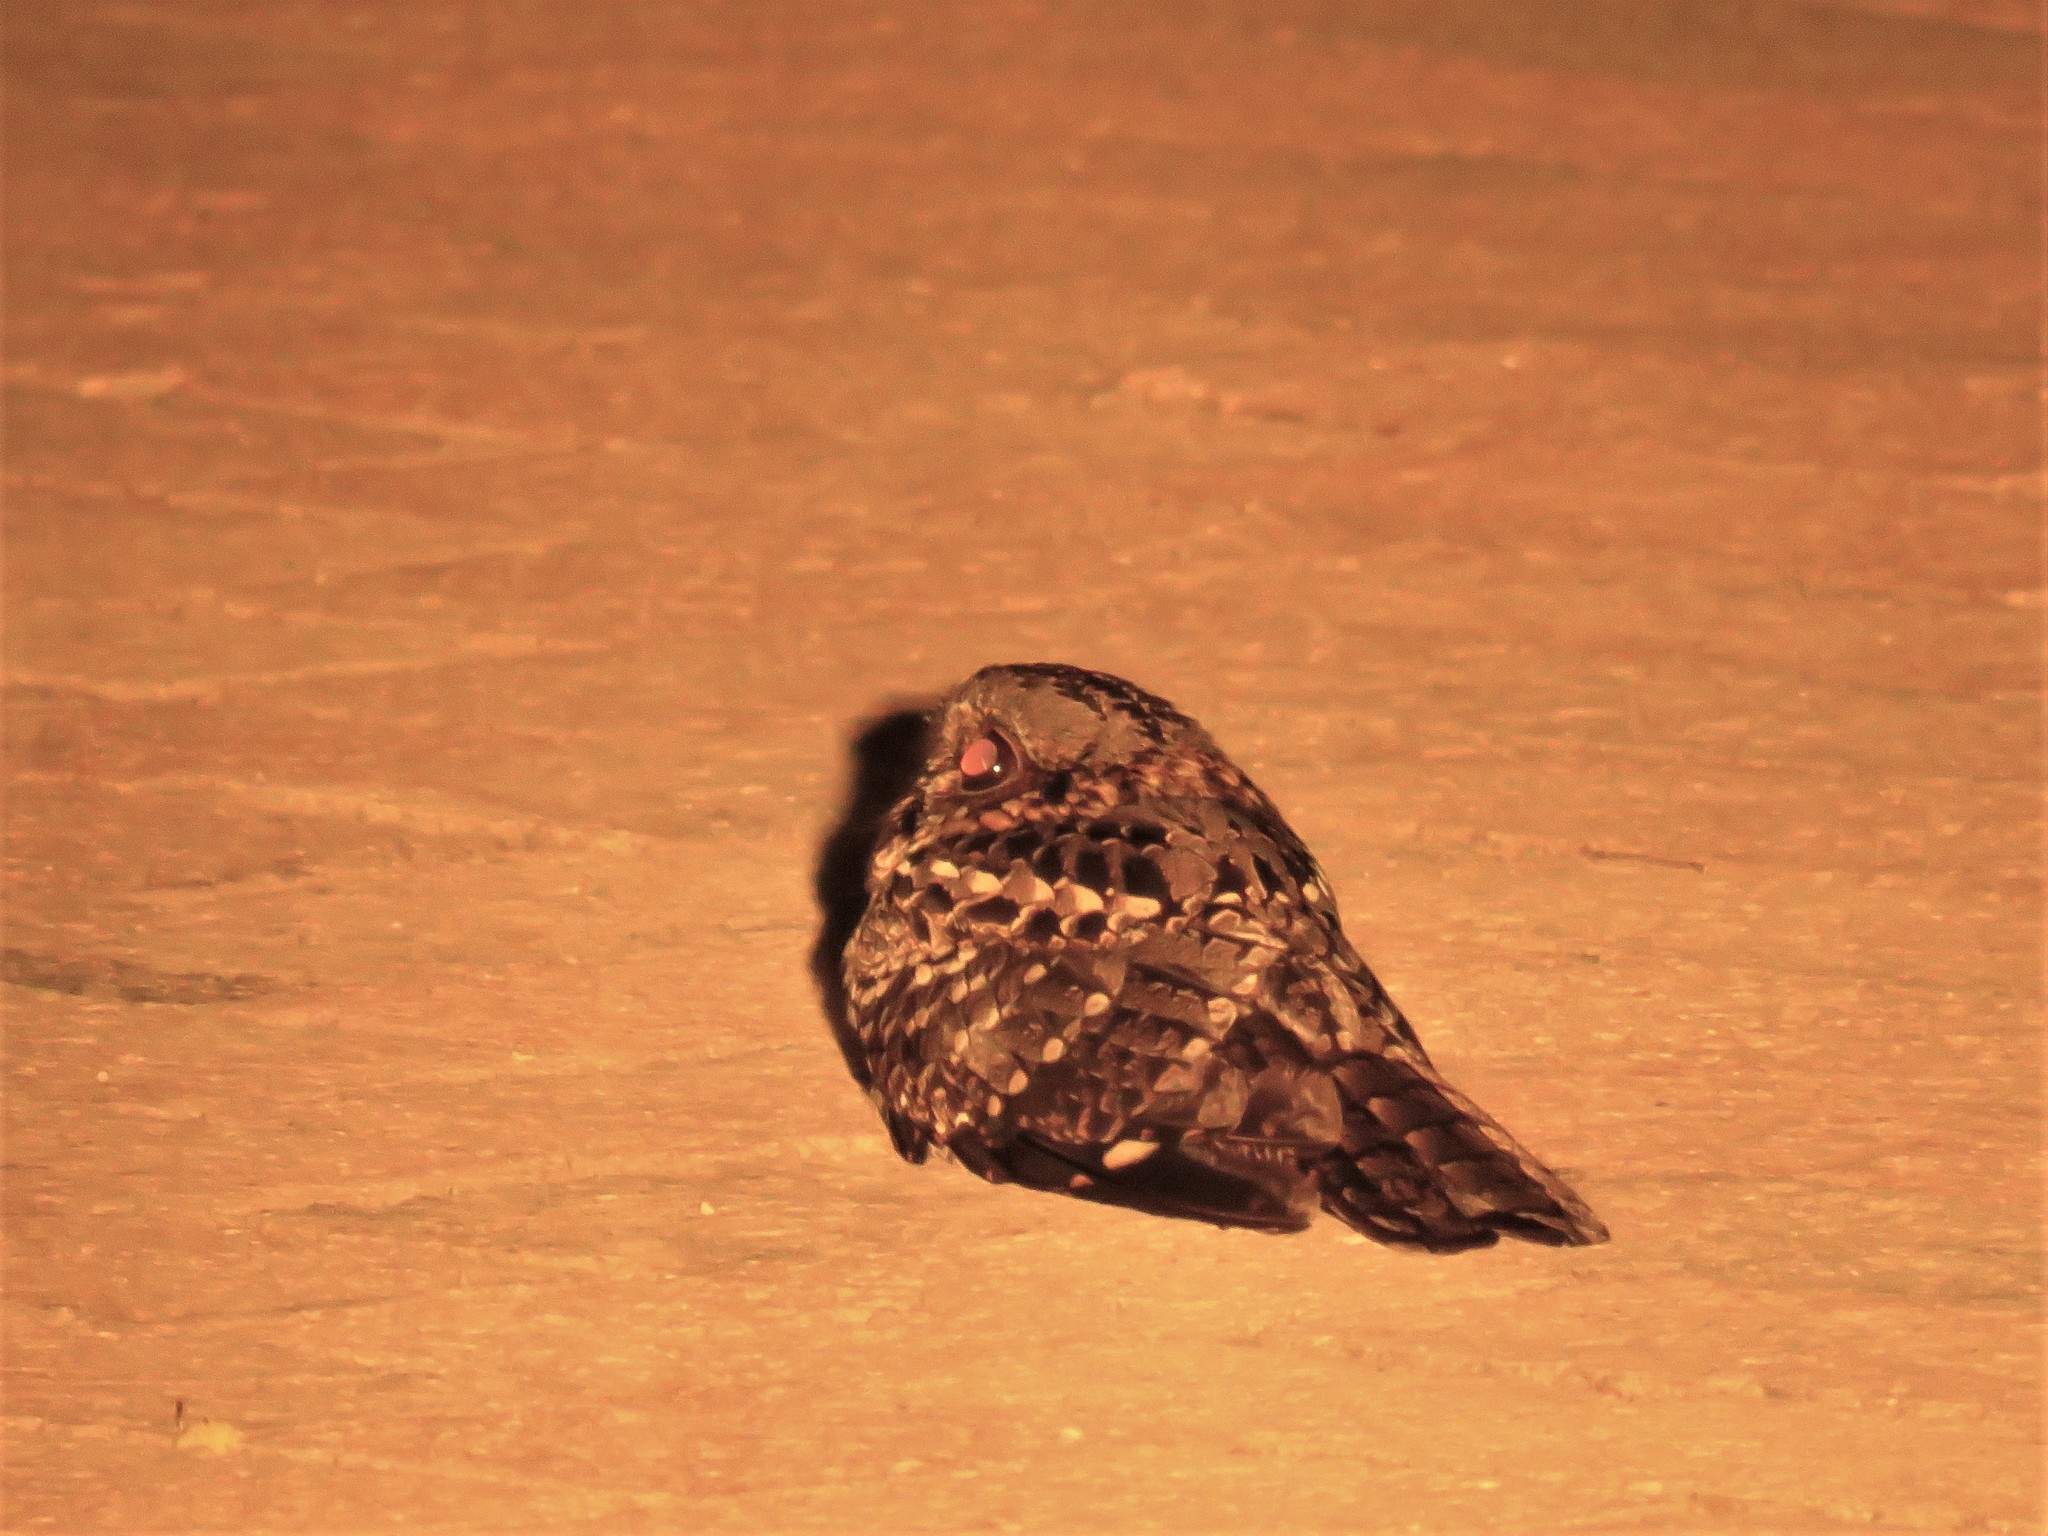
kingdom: Animalia
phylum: Chordata
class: Aves
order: Caprimulgiformes
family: Caprimulgidae
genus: Caprimulgus
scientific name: Caprimulgus pectoralis
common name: Fiery-necked nightjar
